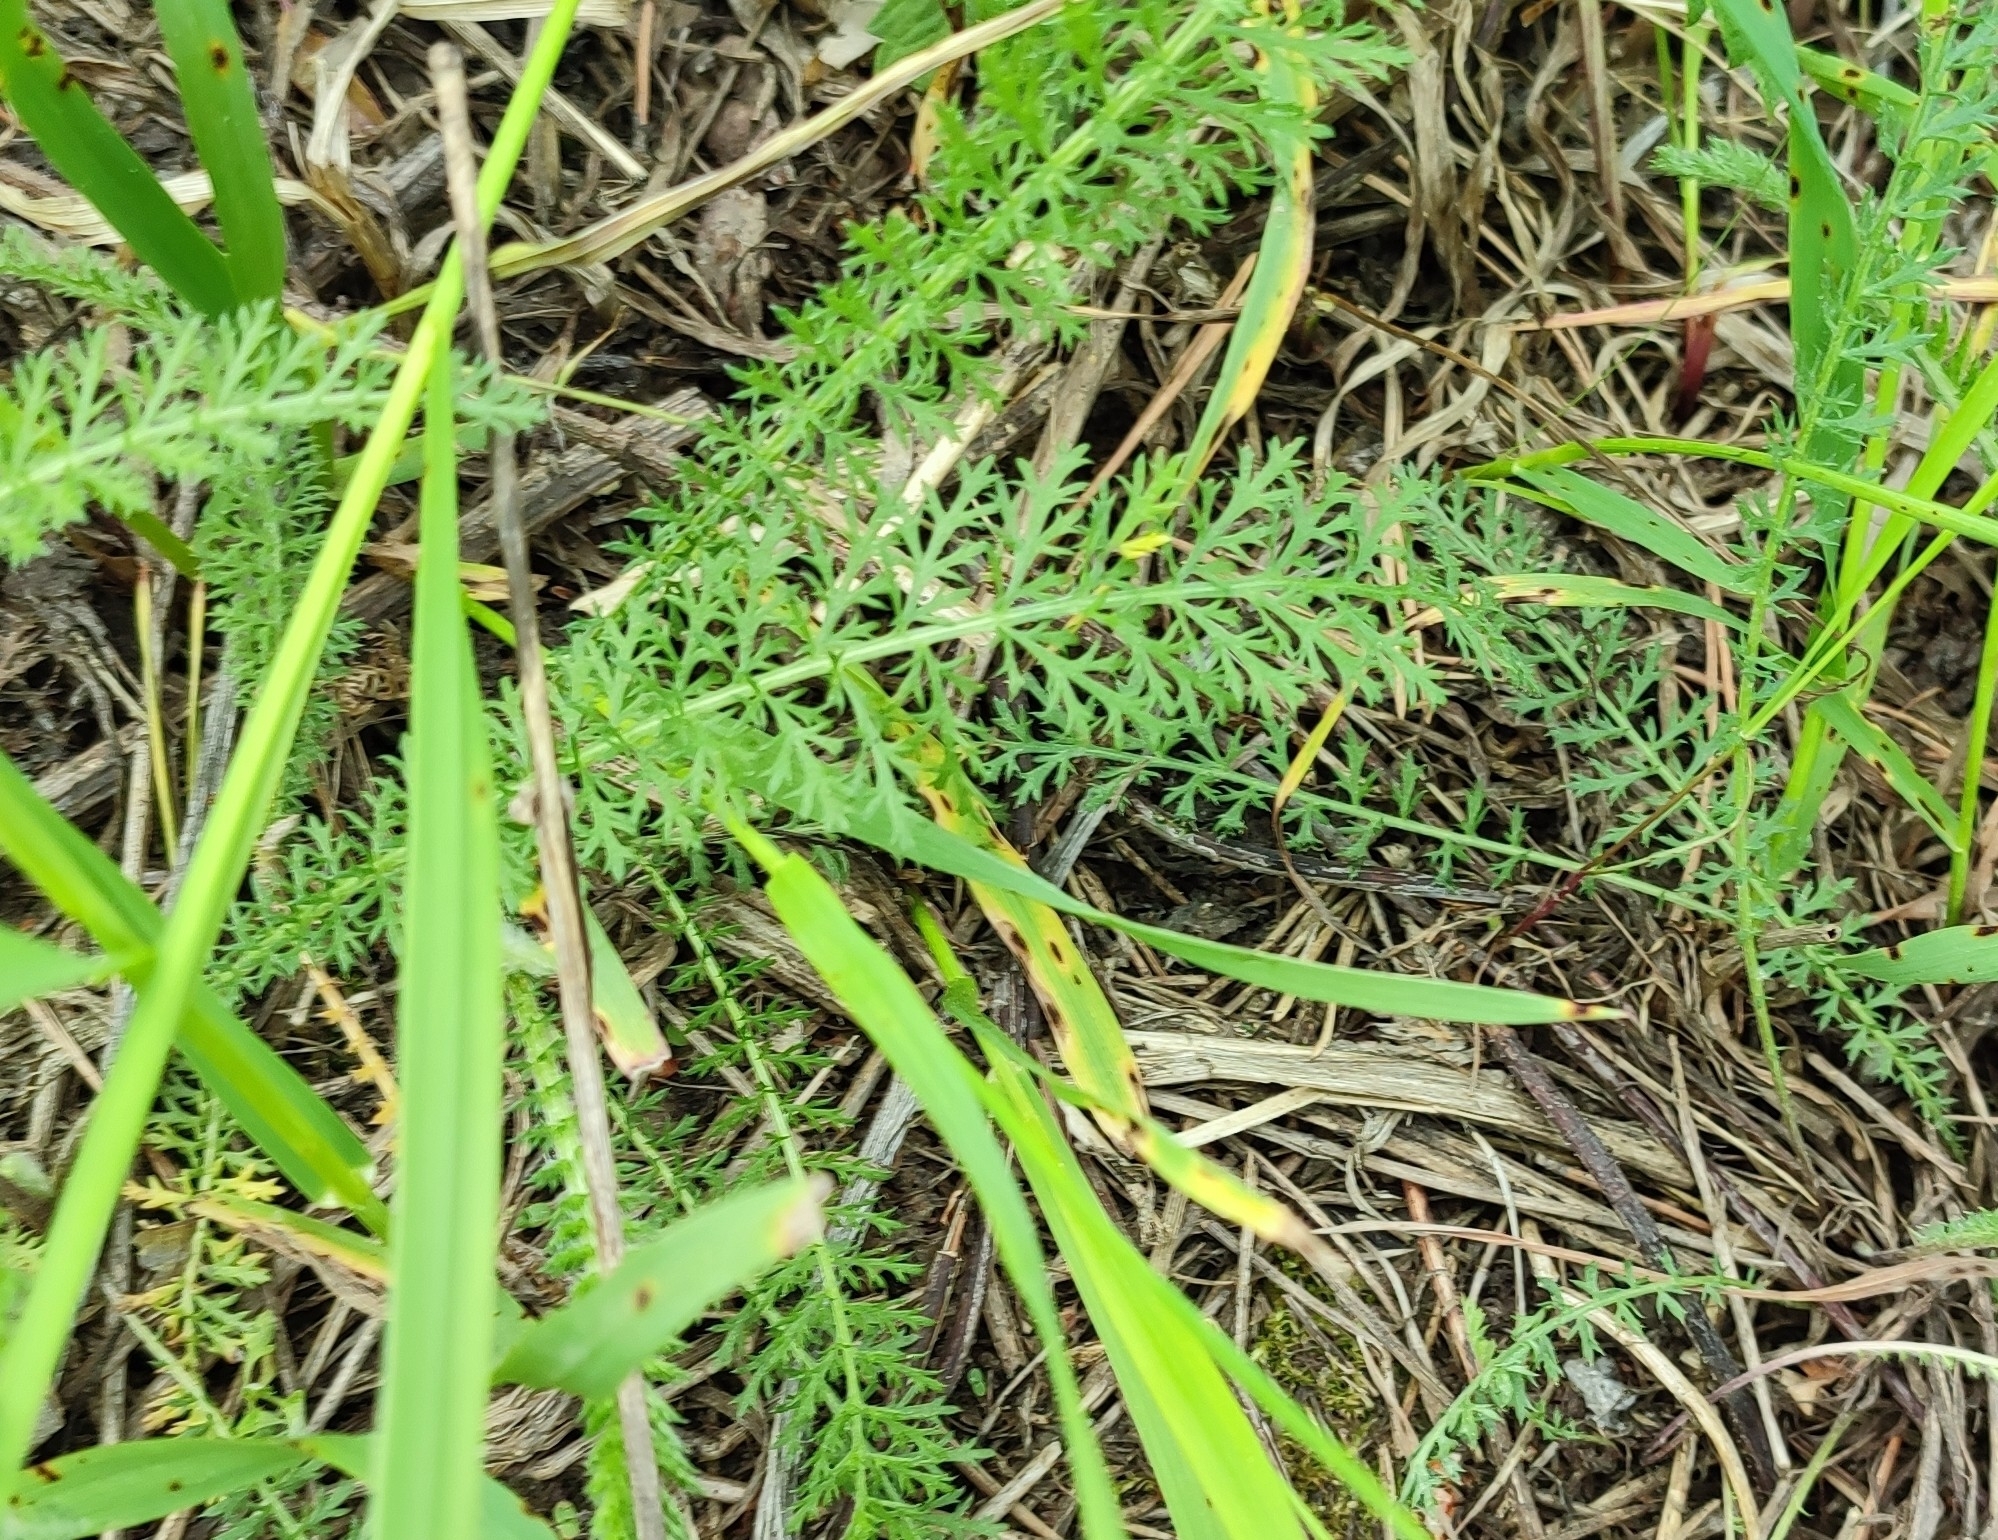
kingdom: Plantae
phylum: Tracheophyta
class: Magnoliopsida
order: Asterales
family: Asteraceae
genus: Achillea
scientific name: Achillea asiatica
